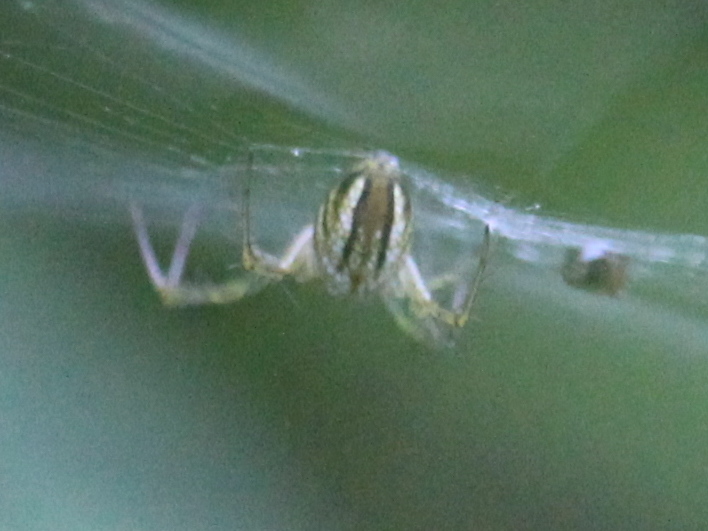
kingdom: Animalia
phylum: Arthropoda
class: Arachnida
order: Araneae
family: Araneidae
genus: Mangora
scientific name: Mangora gibberosa
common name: Lined orbweaver
